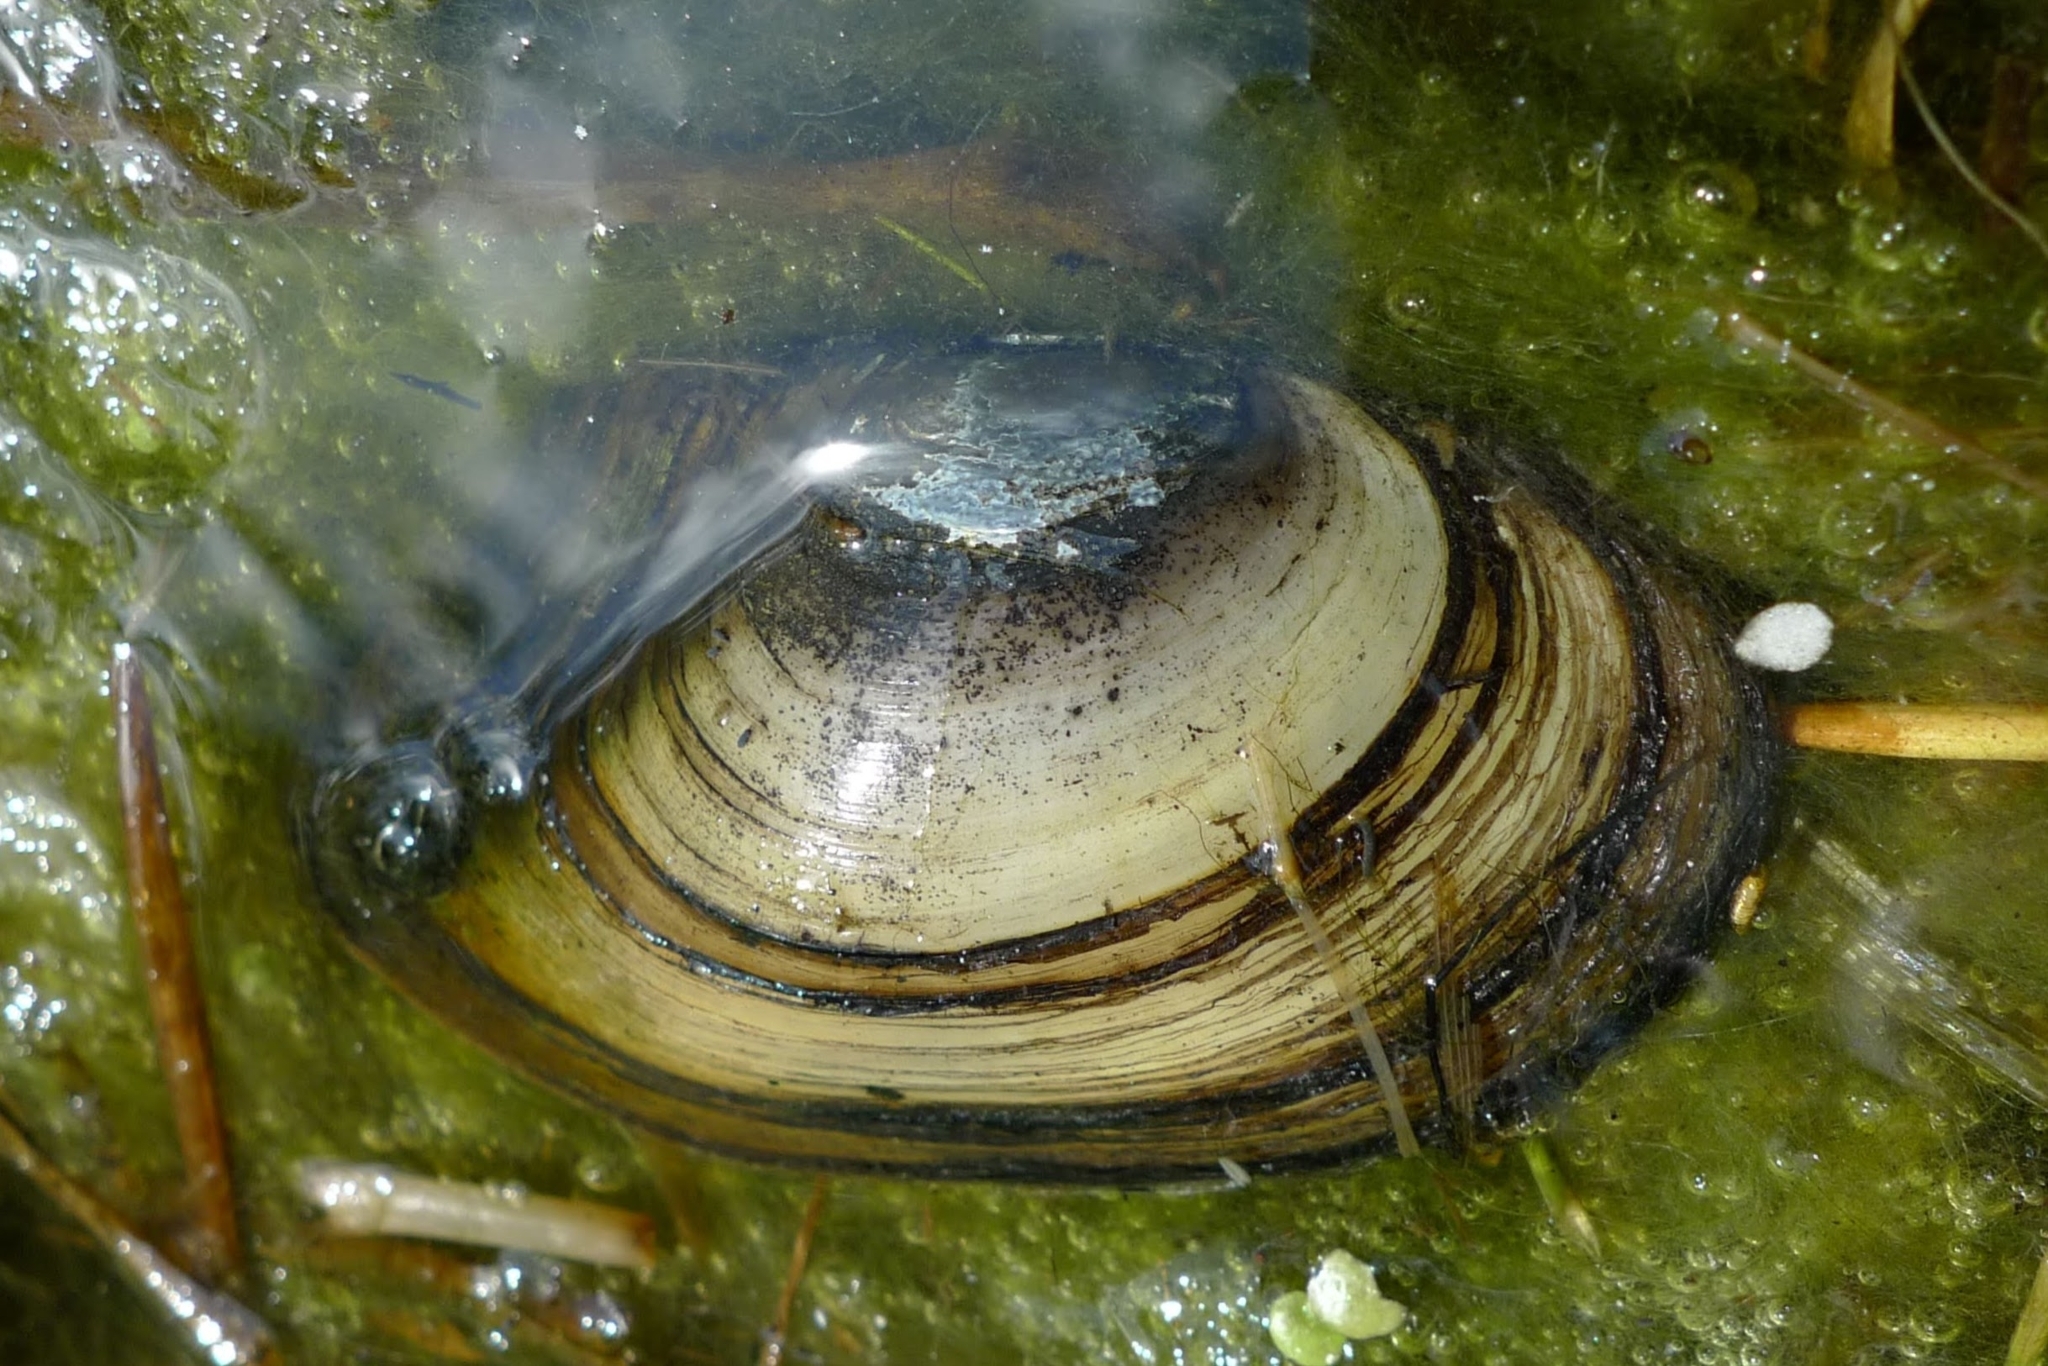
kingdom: Animalia
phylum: Mollusca
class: Bivalvia
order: Unionida
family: Unionidae
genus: Anodonta
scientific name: Anodonta anatina
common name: Duck mussel
